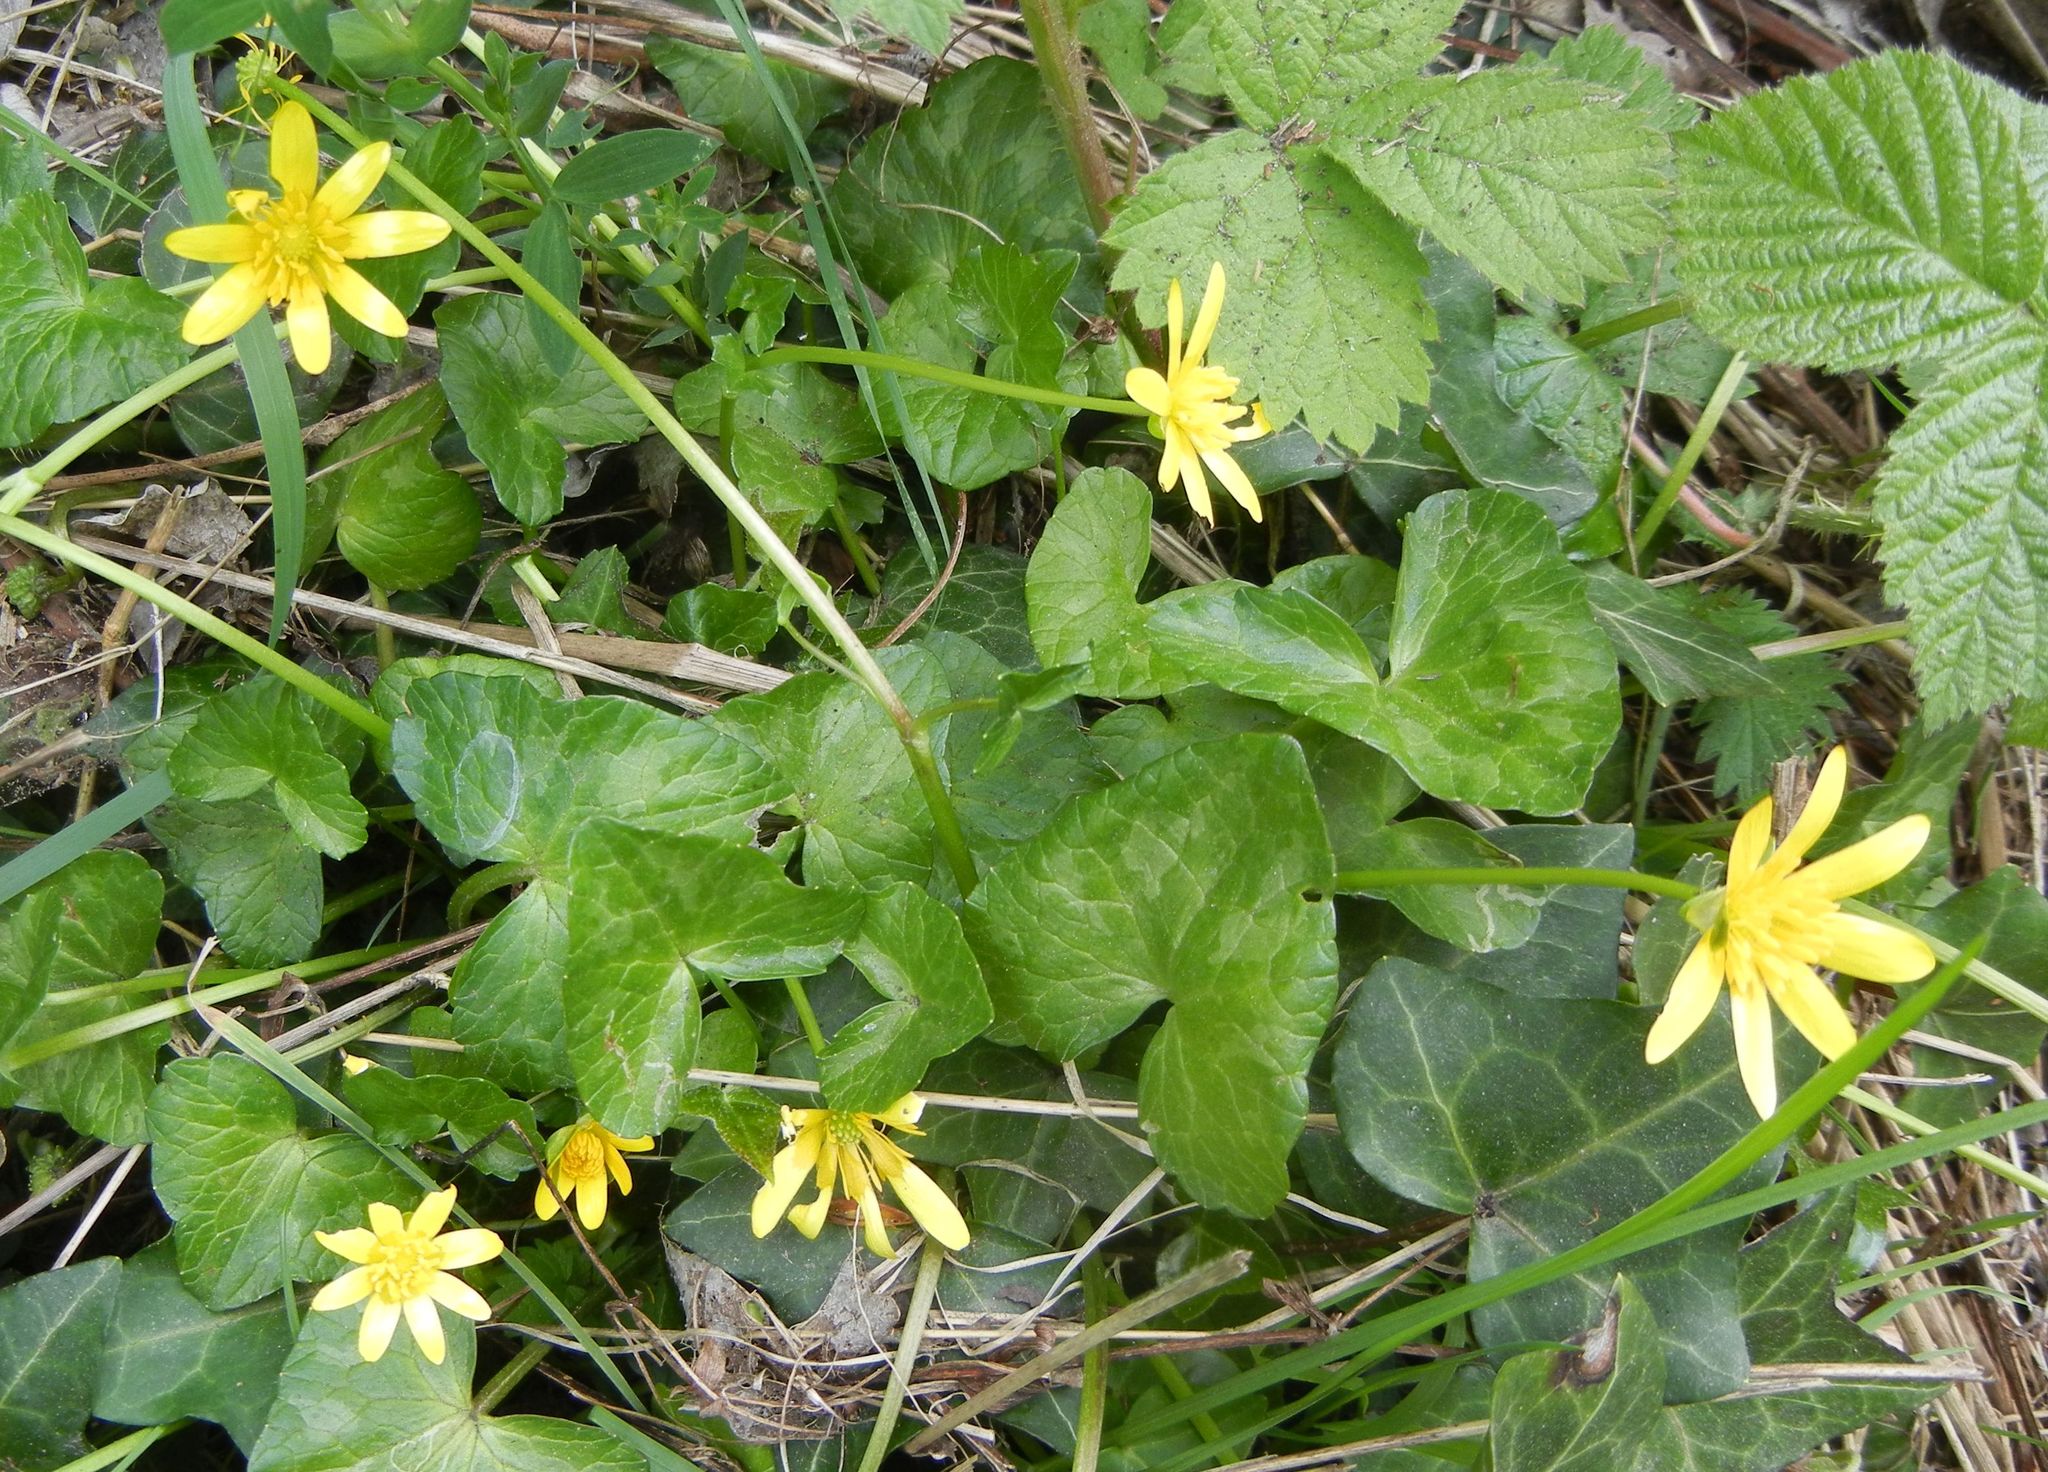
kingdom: Plantae
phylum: Tracheophyta
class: Magnoliopsida
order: Ranunculales
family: Ranunculaceae
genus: Ficaria
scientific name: Ficaria verna
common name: Lesser celandine
